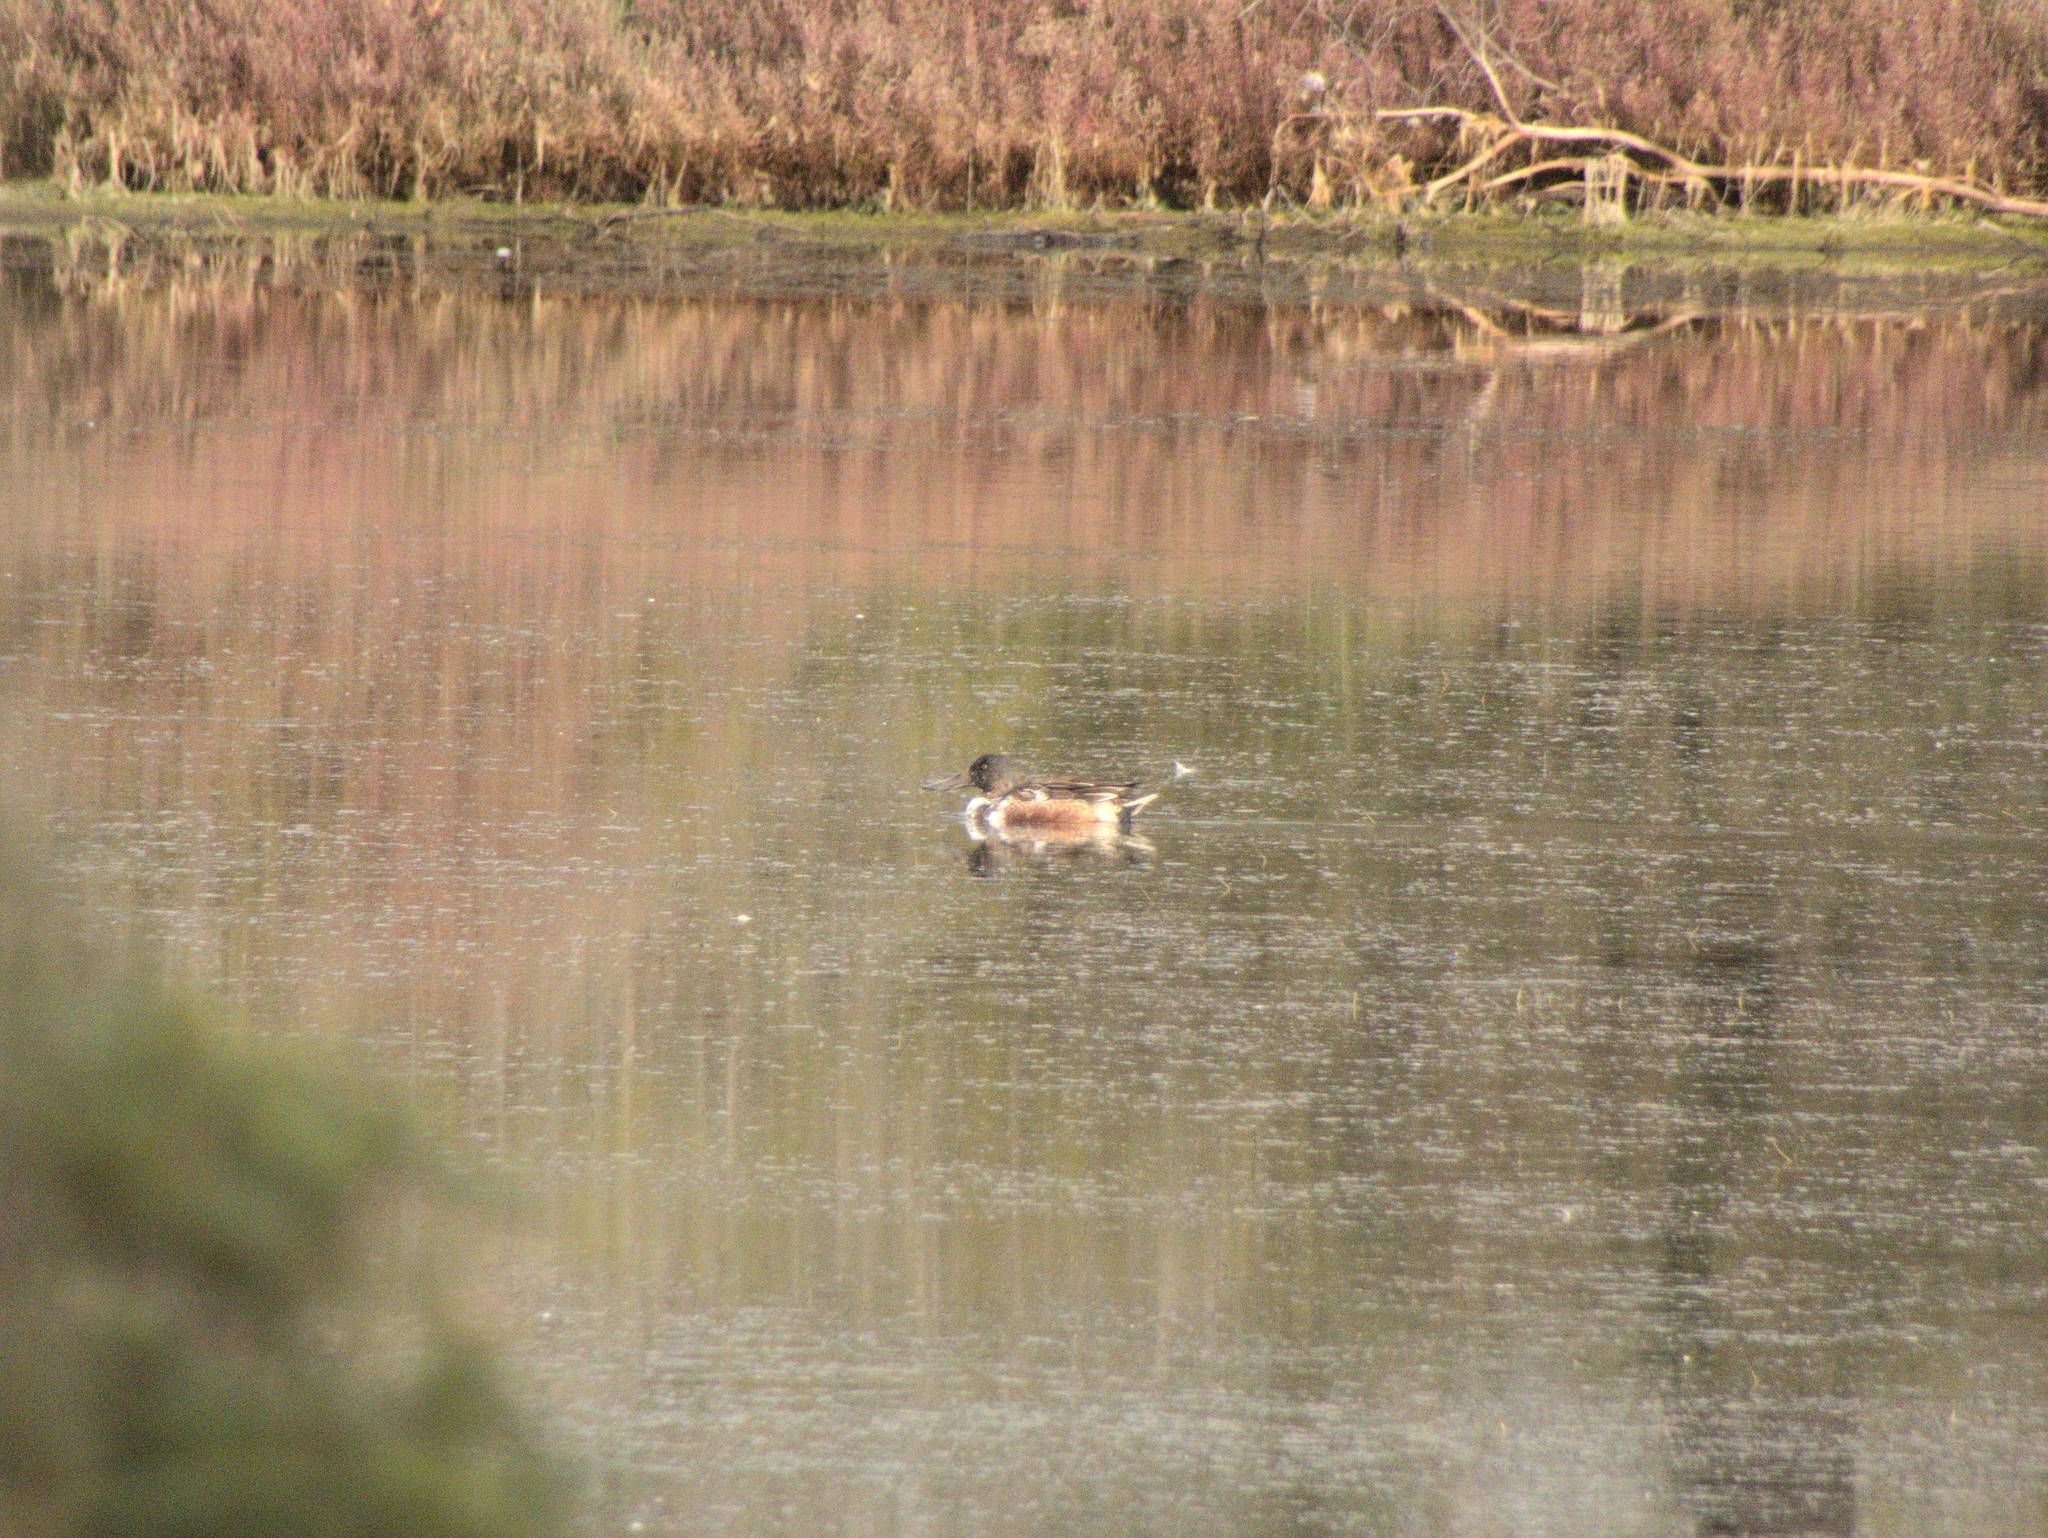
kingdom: Animalia
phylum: Chordata
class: Aves
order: Anseriformes
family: Anatidae
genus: Spatula
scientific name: Spatula clypeata
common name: Northern shoveler
